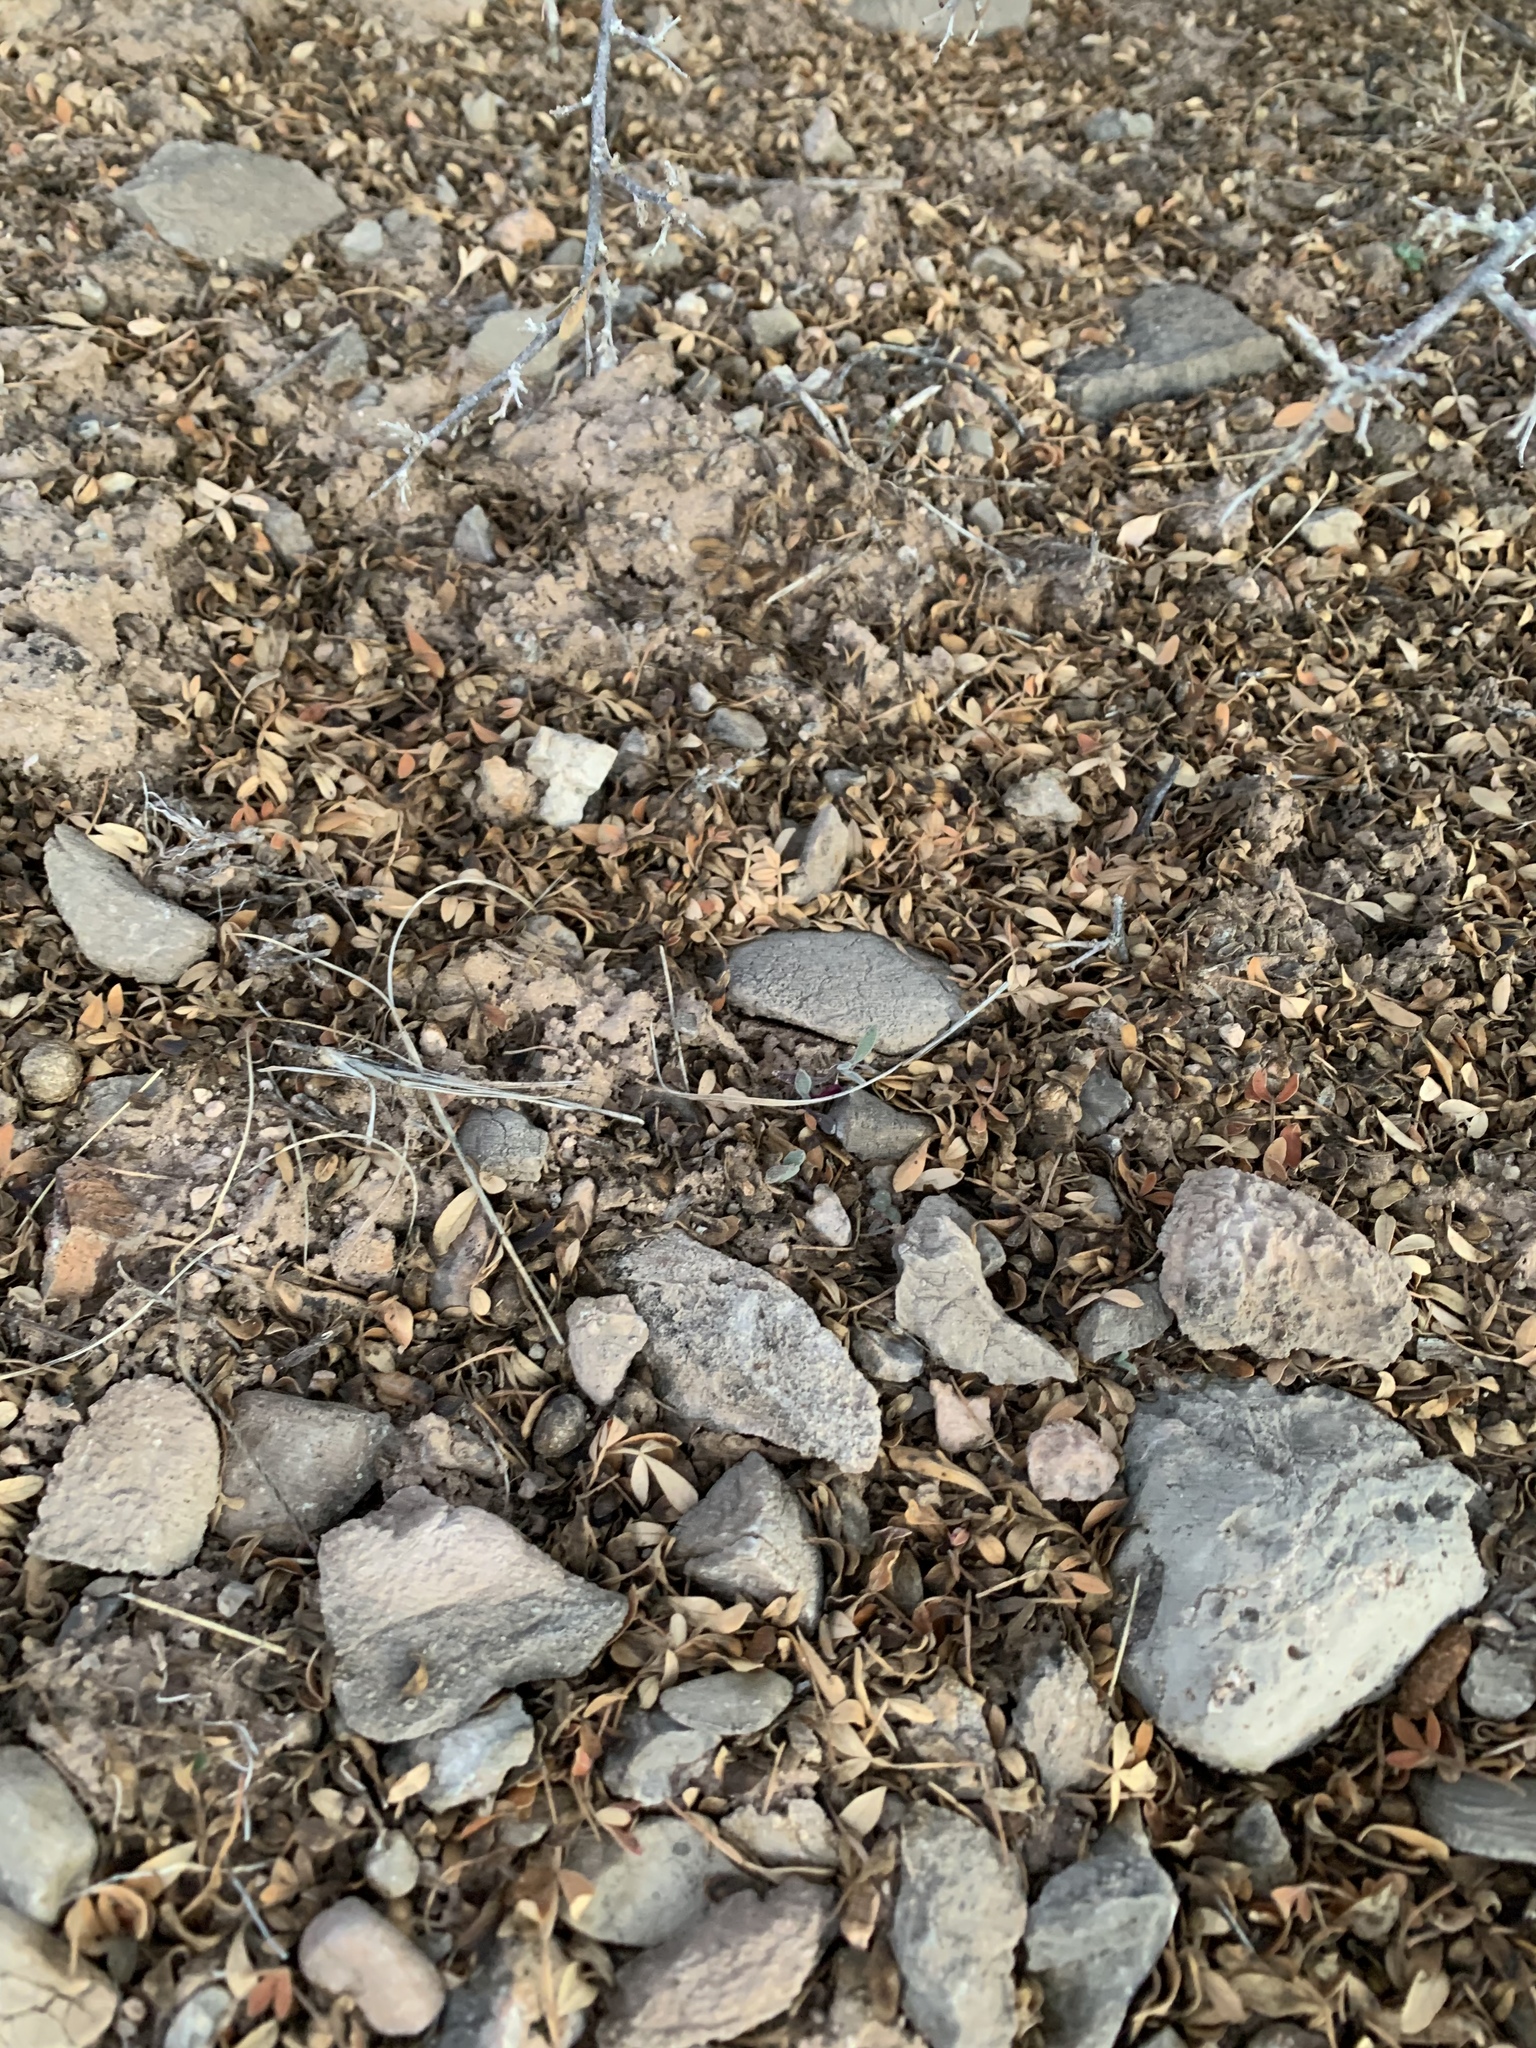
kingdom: Plantae
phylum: Tracheophyta
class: Magnoliopsida
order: Sapindales
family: Anacardiaceae
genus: Rhus
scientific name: Rhus microphylla
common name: Desert sumac
